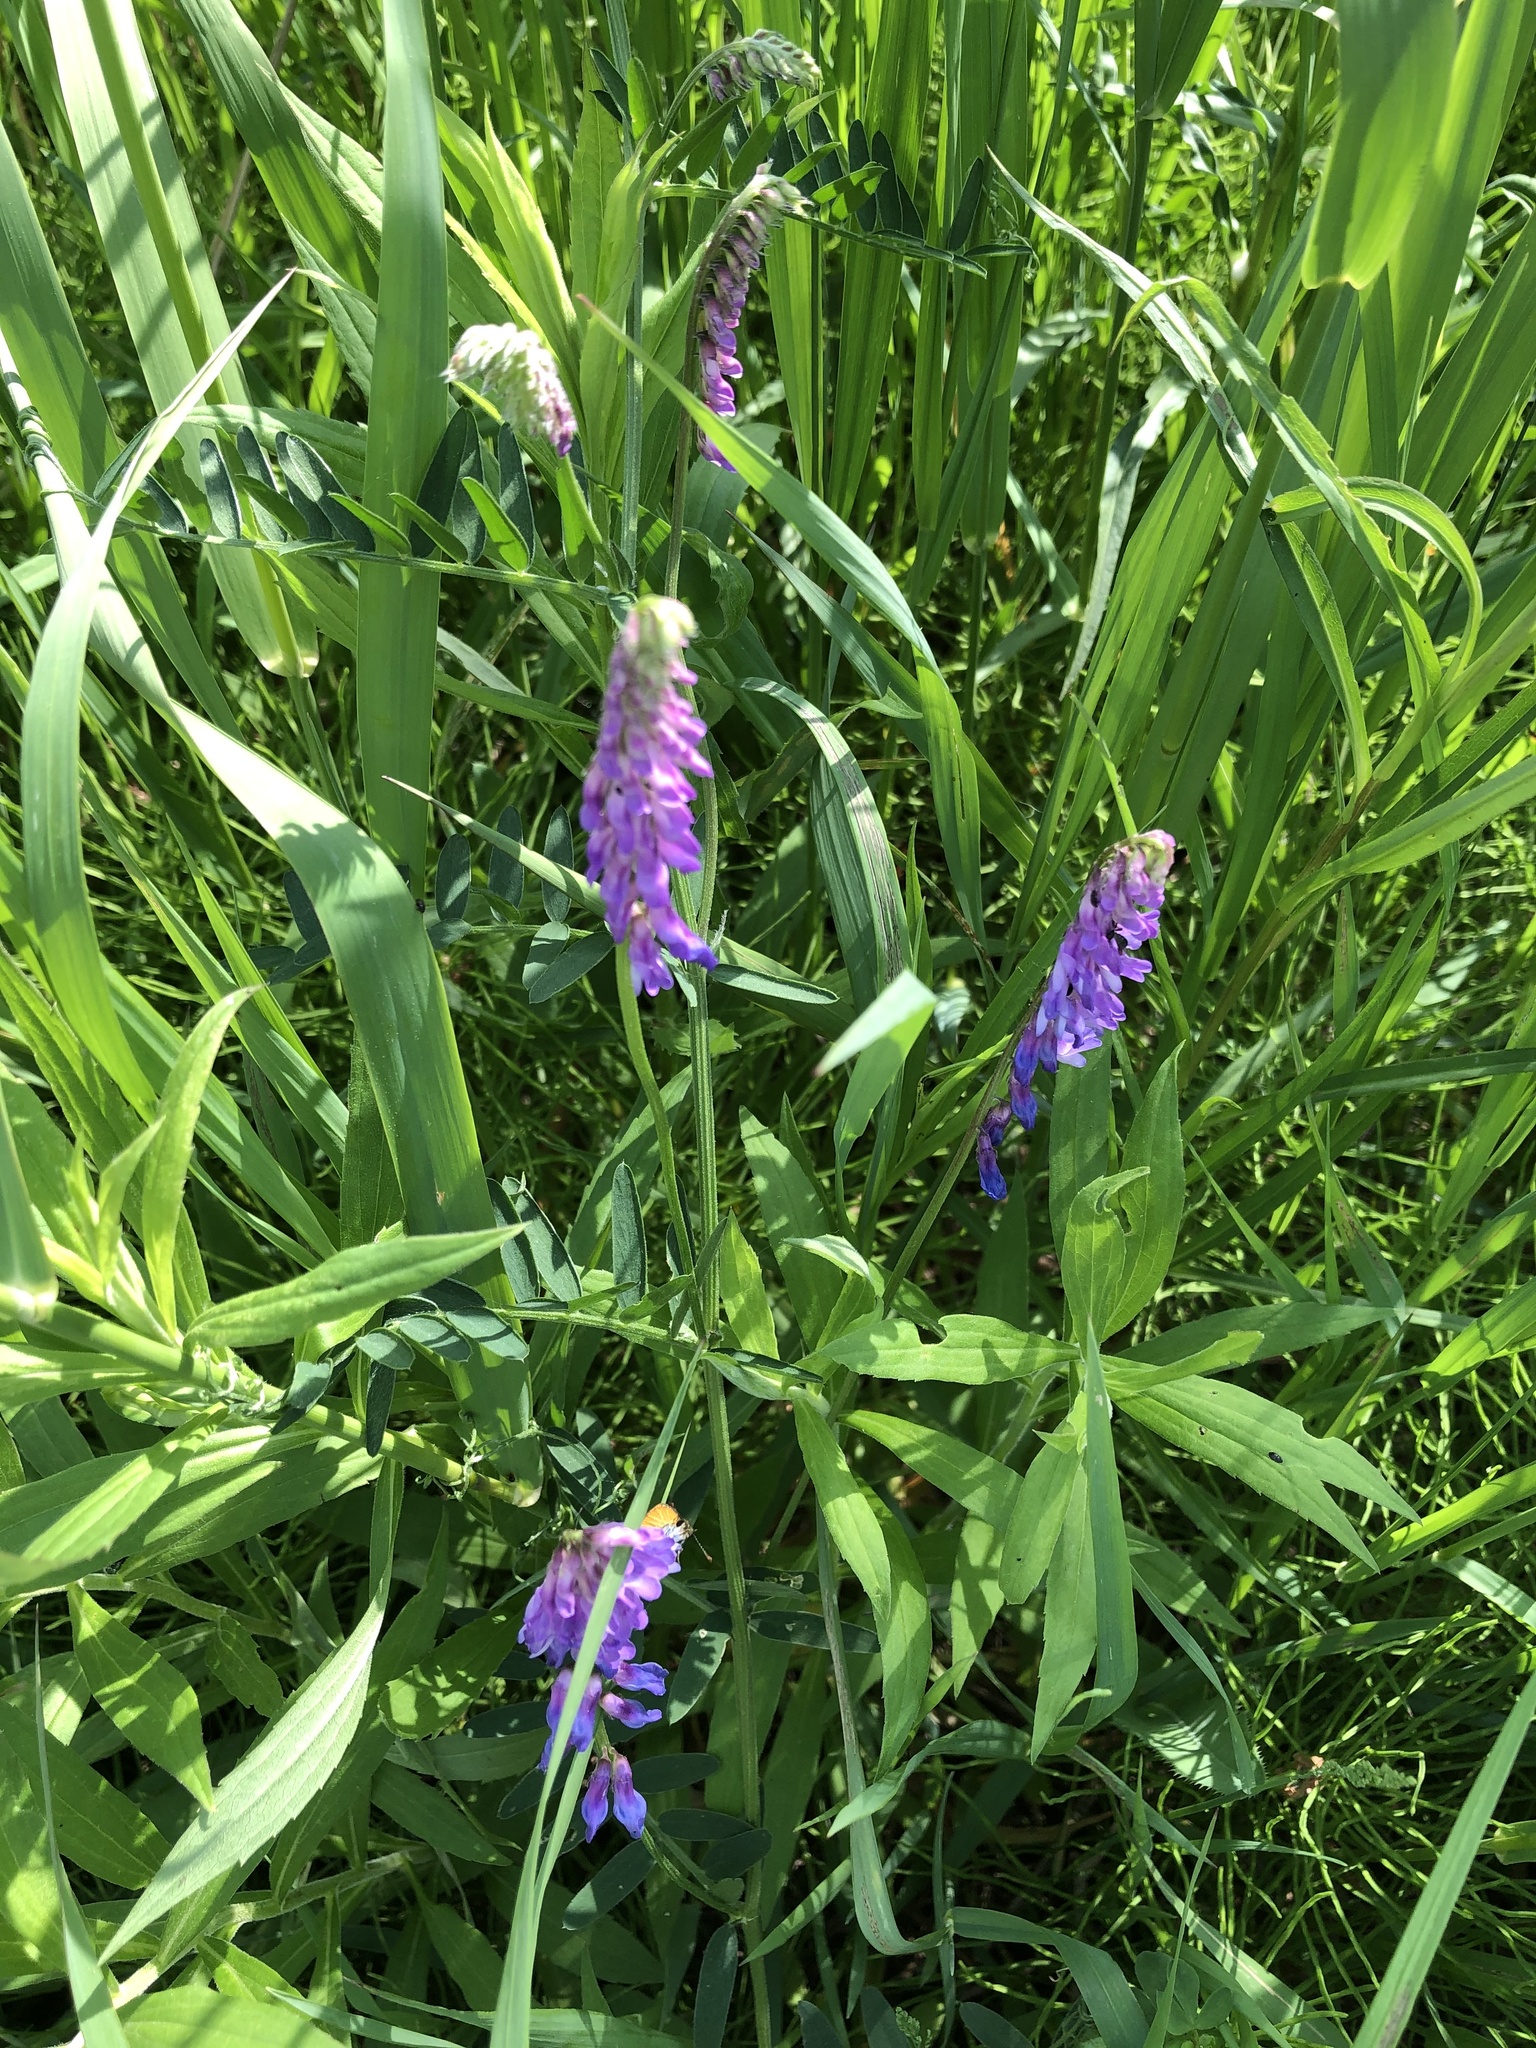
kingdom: Plantae
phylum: Tracheophyta
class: Magnoliopsida
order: Fabales
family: Fabaceae
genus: Vicia
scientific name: Vicia cracca
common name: Bird vetch
